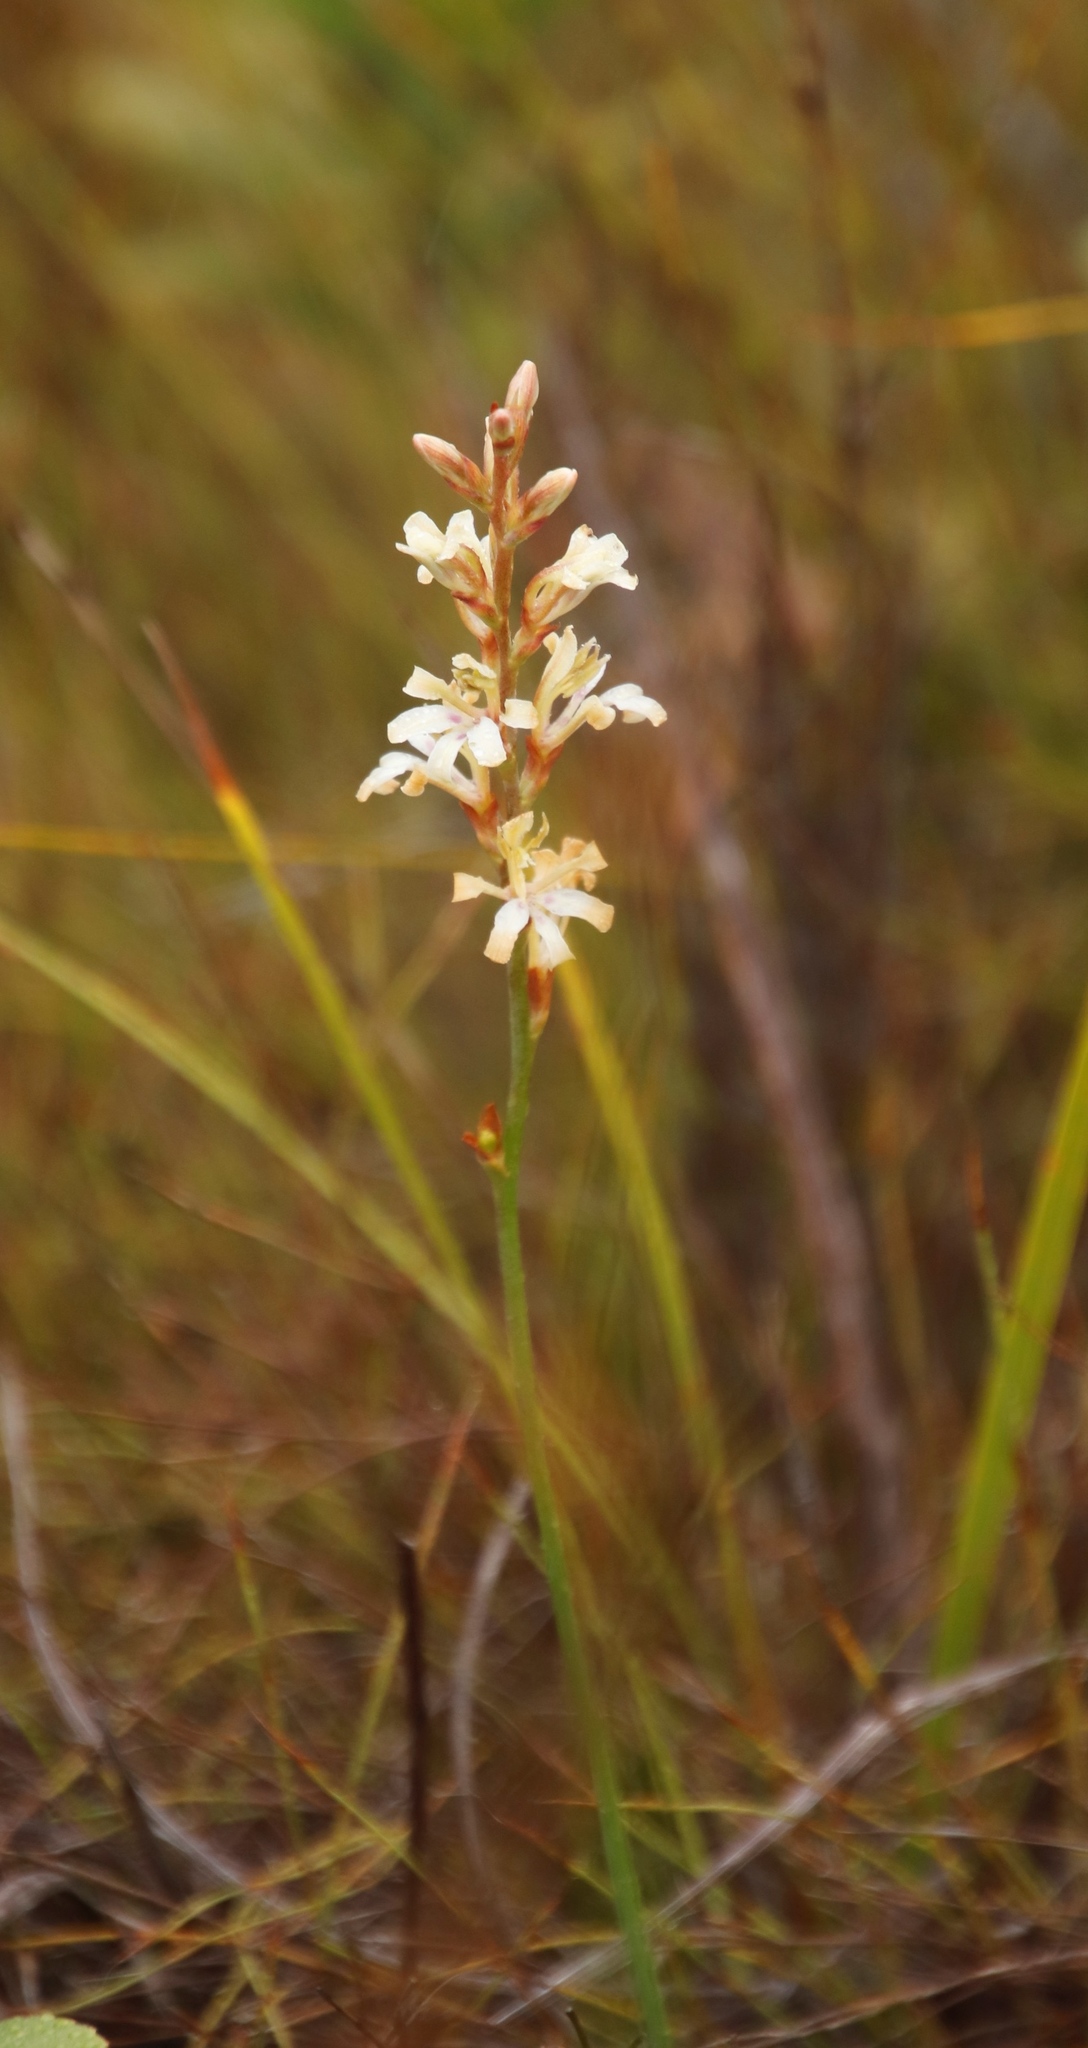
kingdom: Plantae
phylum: Tracheophyta
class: Liliopsida
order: Asparagales
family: Iridaceae
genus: Tritoniopsis
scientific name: Tritoniopsis unguicularis
